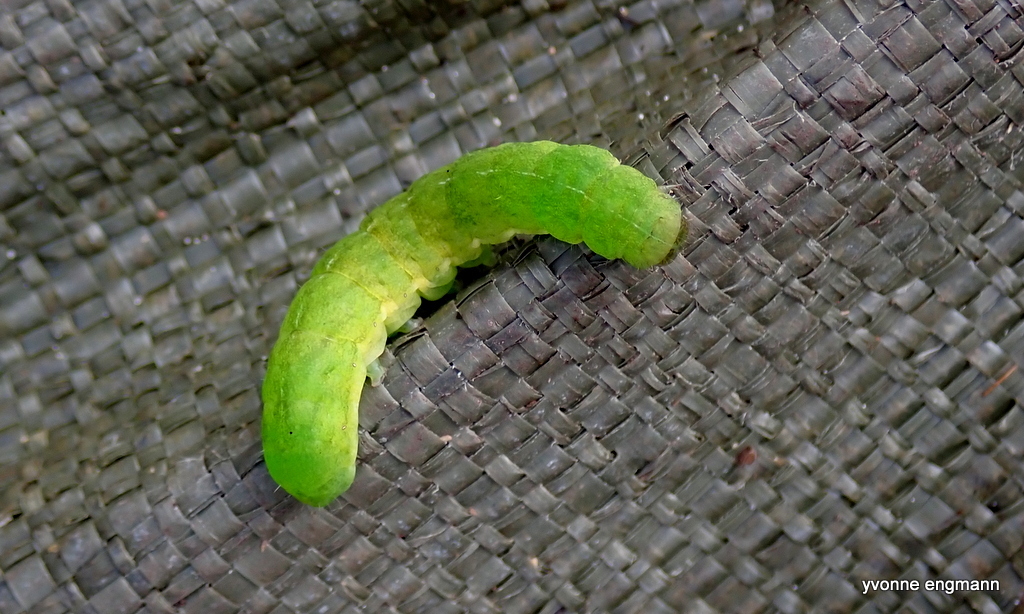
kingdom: Animalia
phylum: Arthropoda
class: Insecta
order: Lepidoptera
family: Noctuidae
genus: Phlogophora
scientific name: Phlogophora meticulosa
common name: Angle shades
